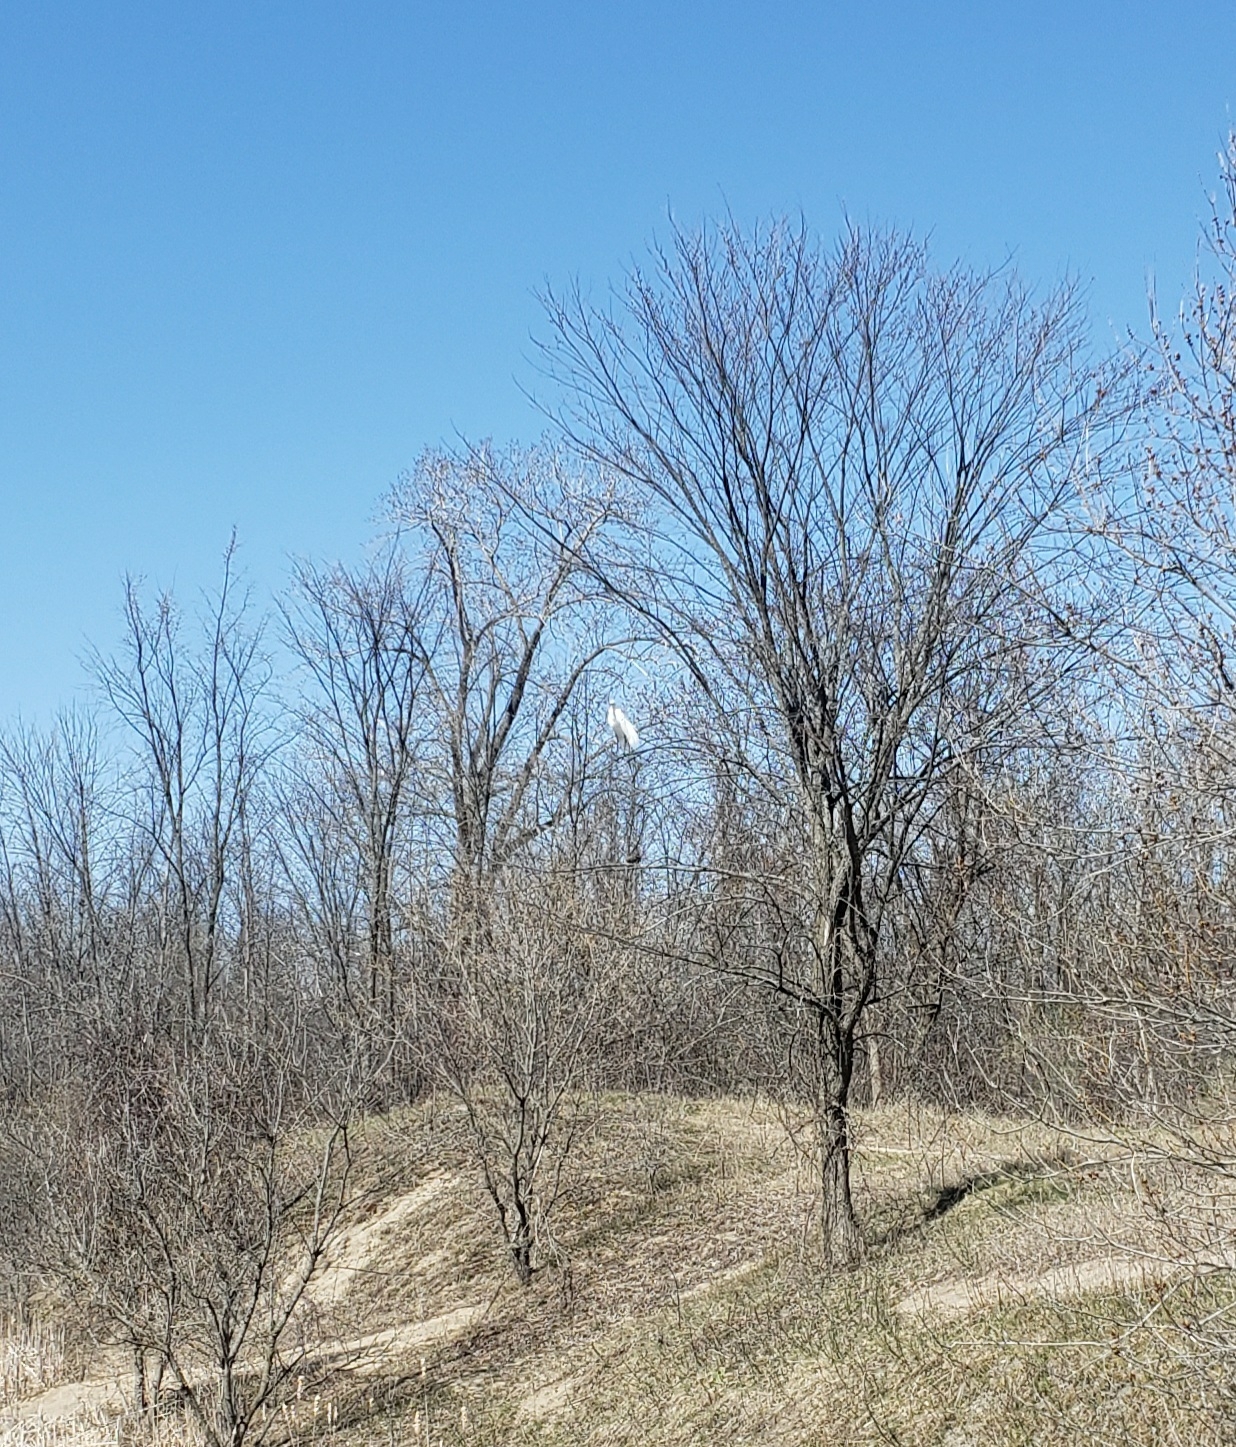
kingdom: Animalia
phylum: Chordata
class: Aves
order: Pelecaniformes
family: Ardeidae
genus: Ardea
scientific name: Ardea alba
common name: Great egret
